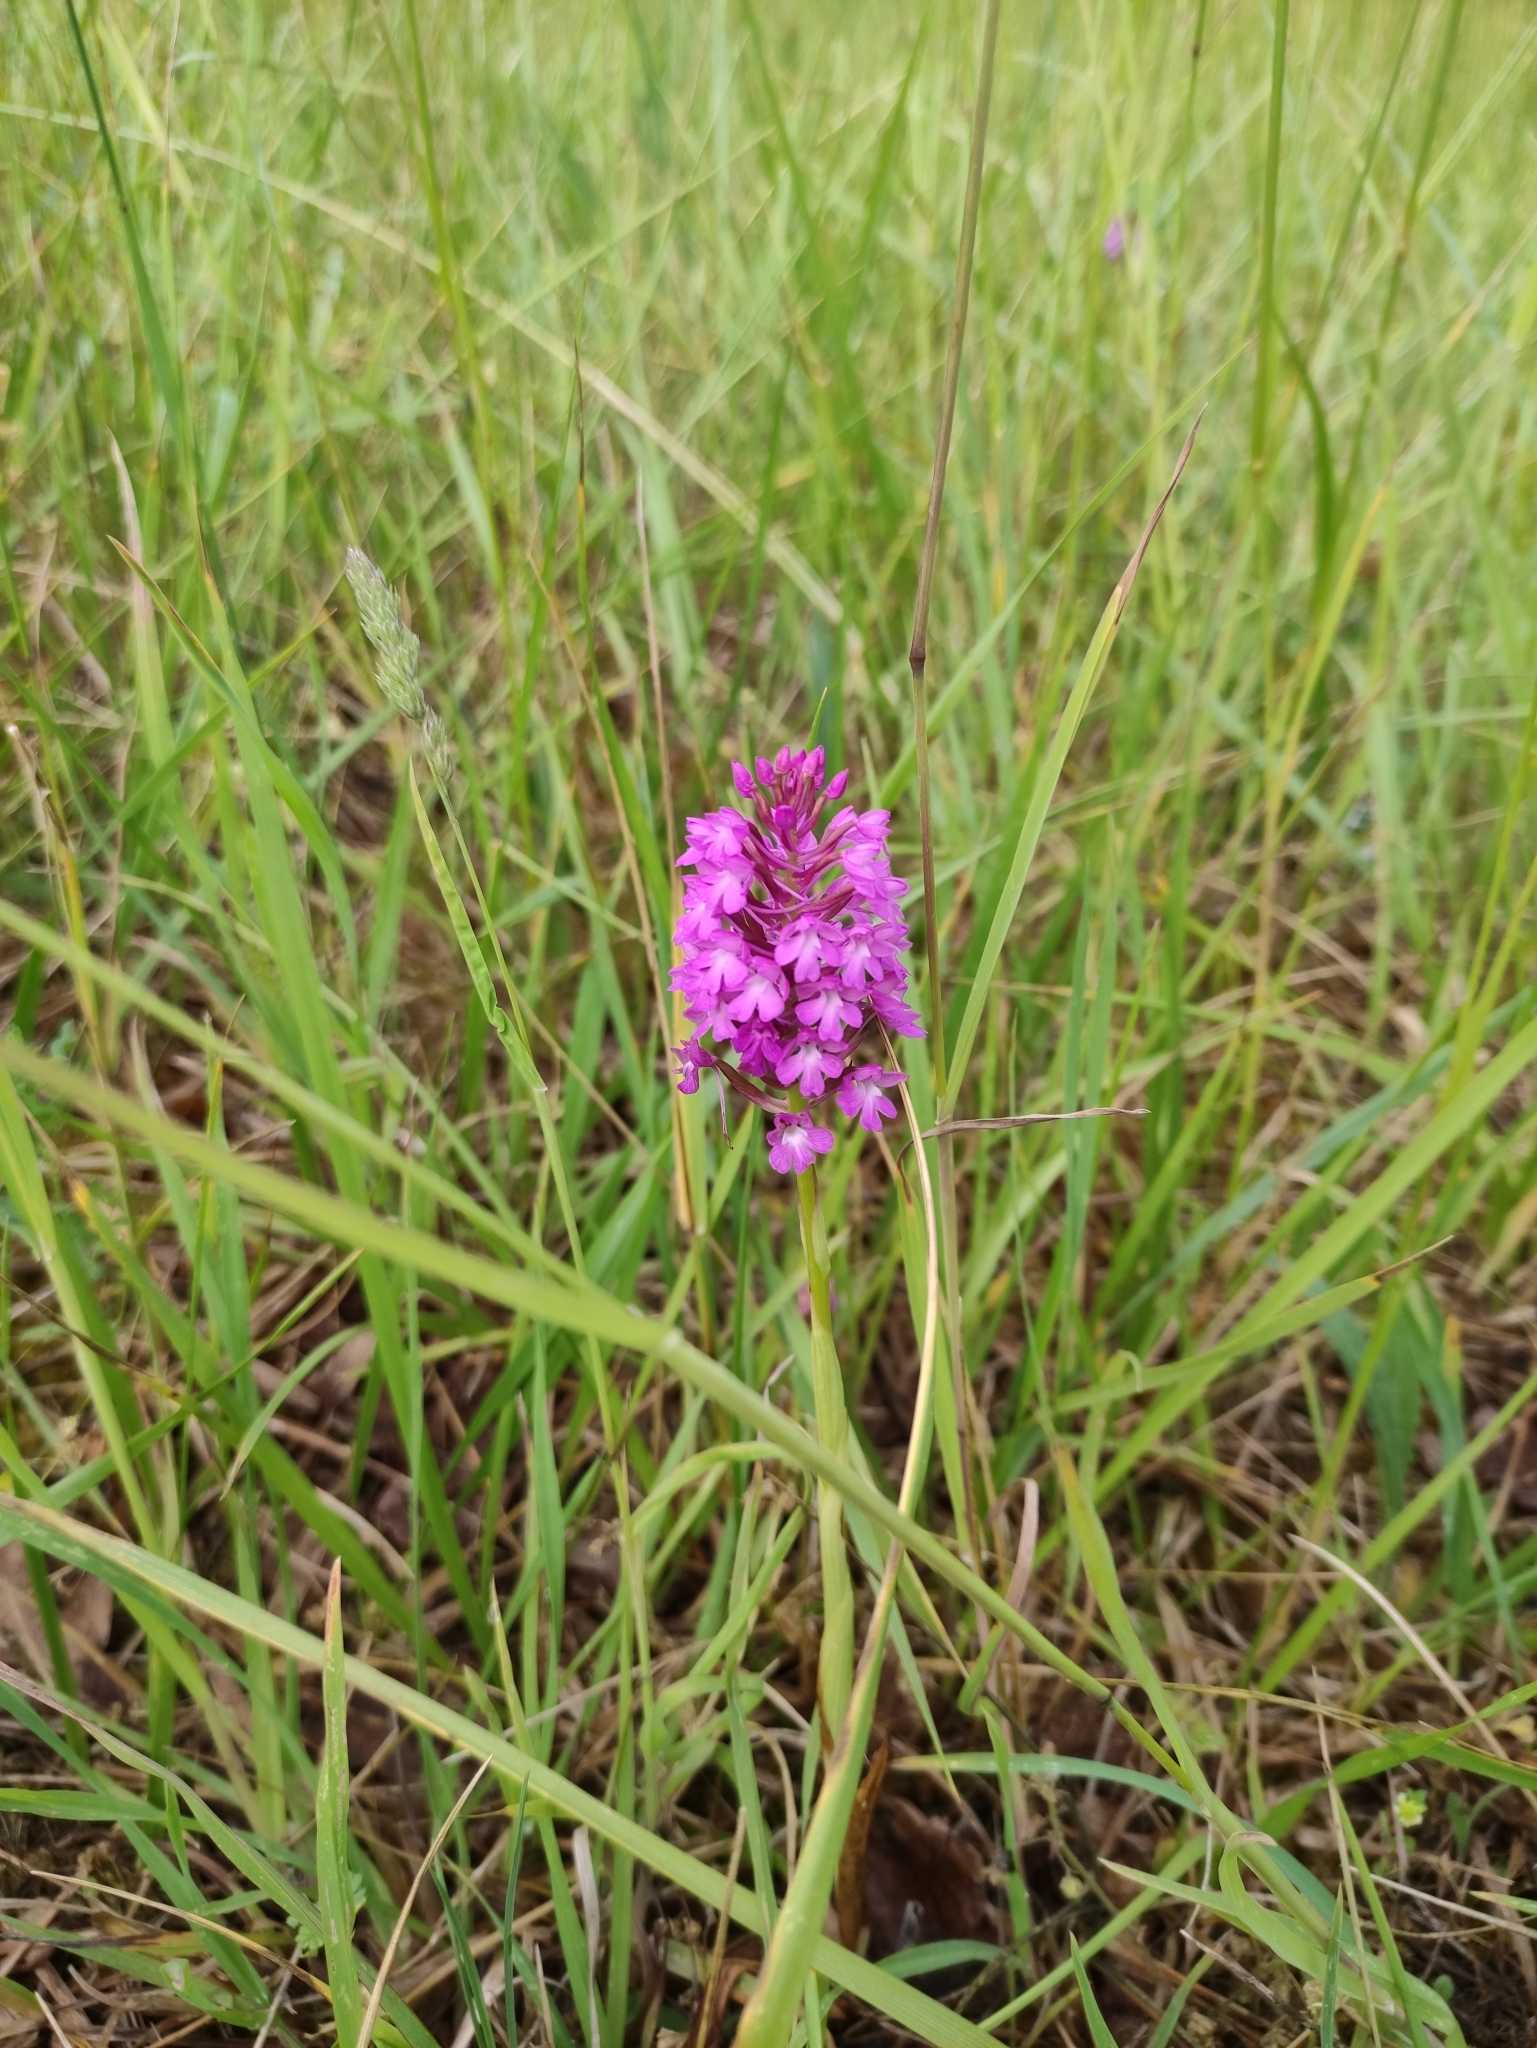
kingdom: Plantae
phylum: Tracheophyta
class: Liliopsida
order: Asparagales
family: Orchidaceae
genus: Anacamptis
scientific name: Anacamptis pyramidalis
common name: Pyramidal orchid
